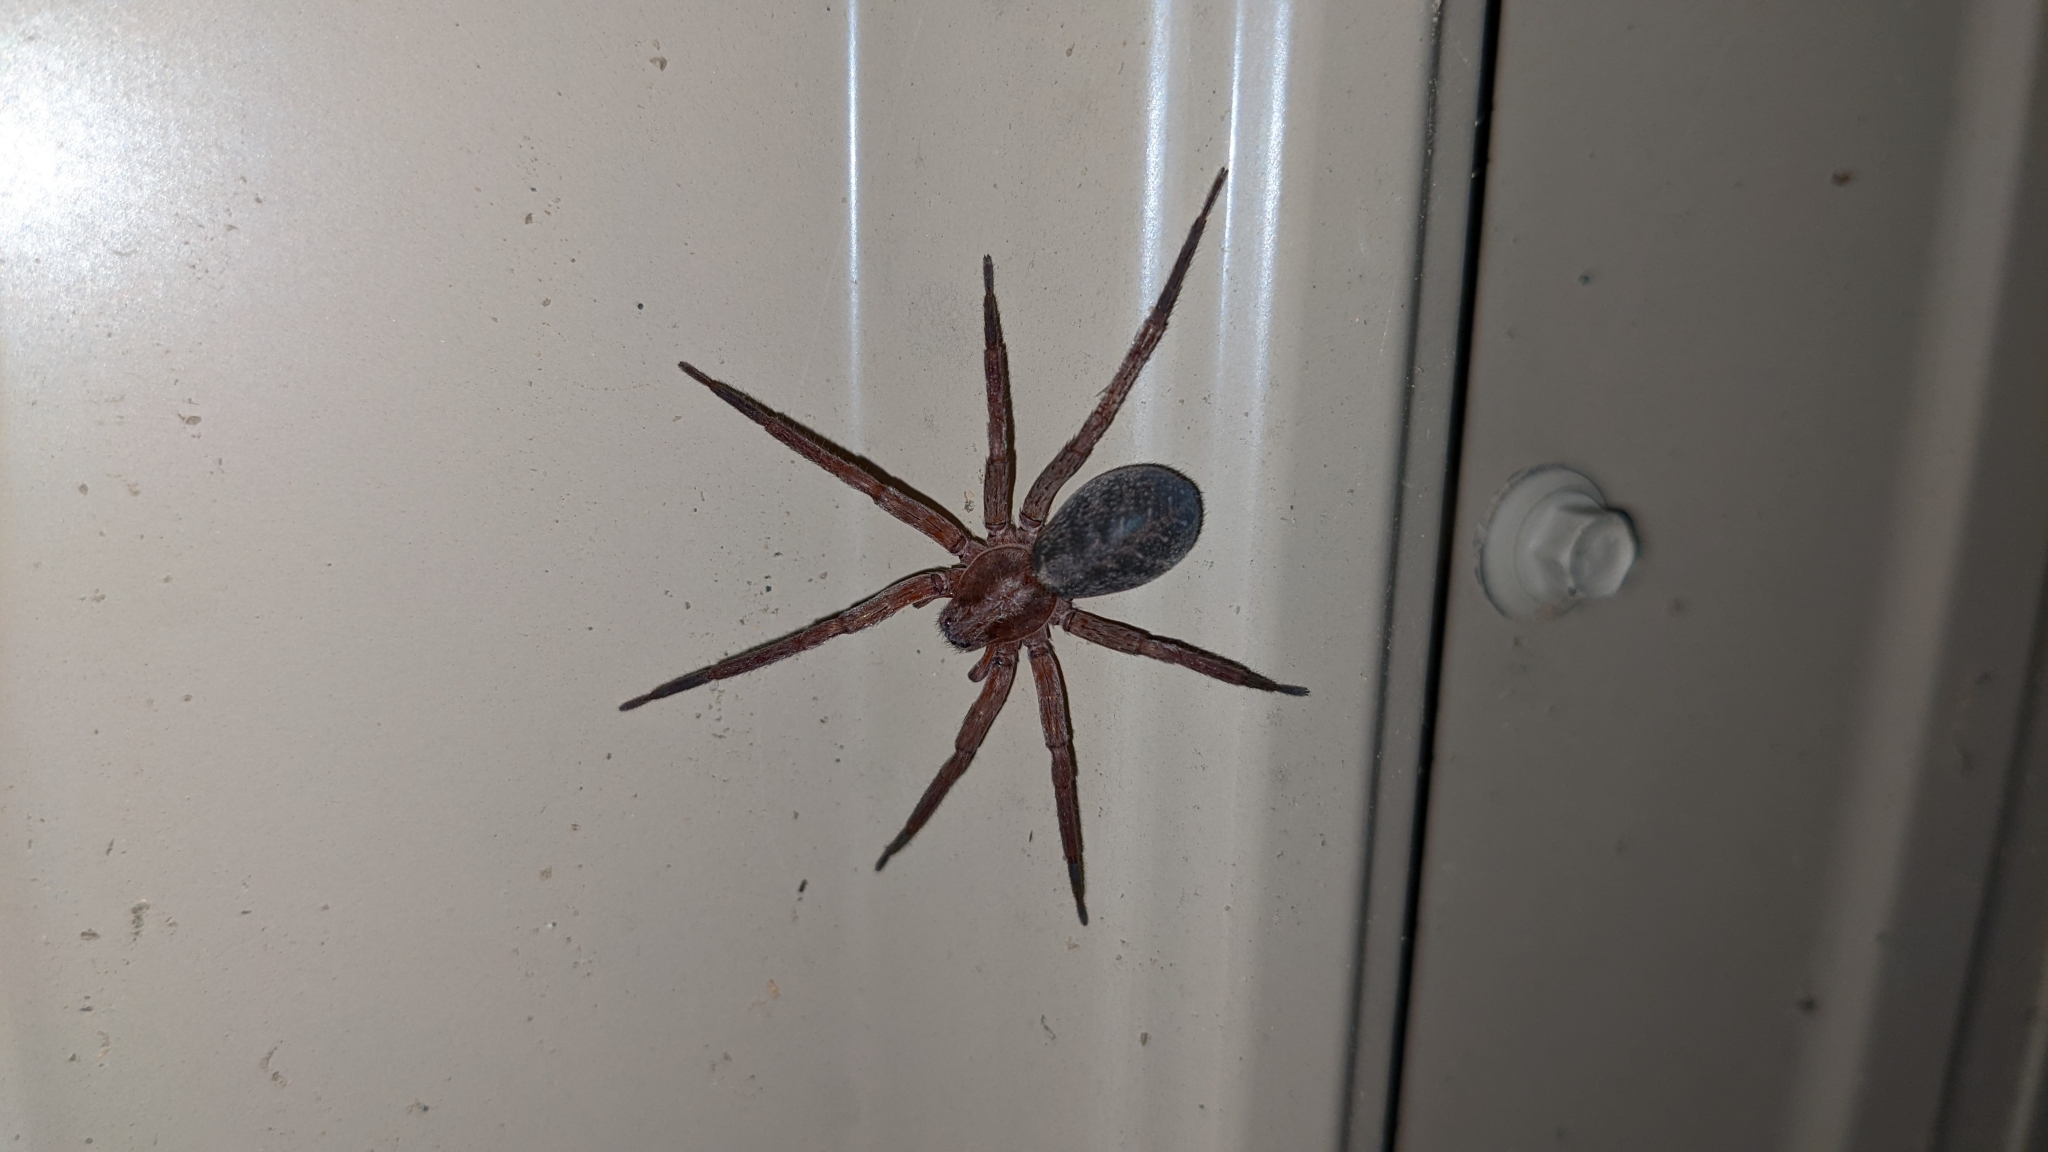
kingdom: Animalia
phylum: Arthropoda
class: Arachnida
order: Araneae
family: Ctenidae
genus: Ctenus
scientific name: Ctenus exlineae
